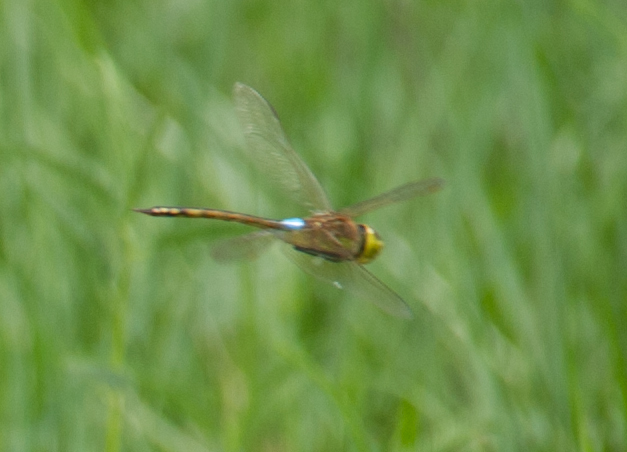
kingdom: Animalia
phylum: Arthropoda
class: Insecta
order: Odonata
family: Aeshnidae
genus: Anax
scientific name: Anax ephippiger
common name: Vagrant emperor
